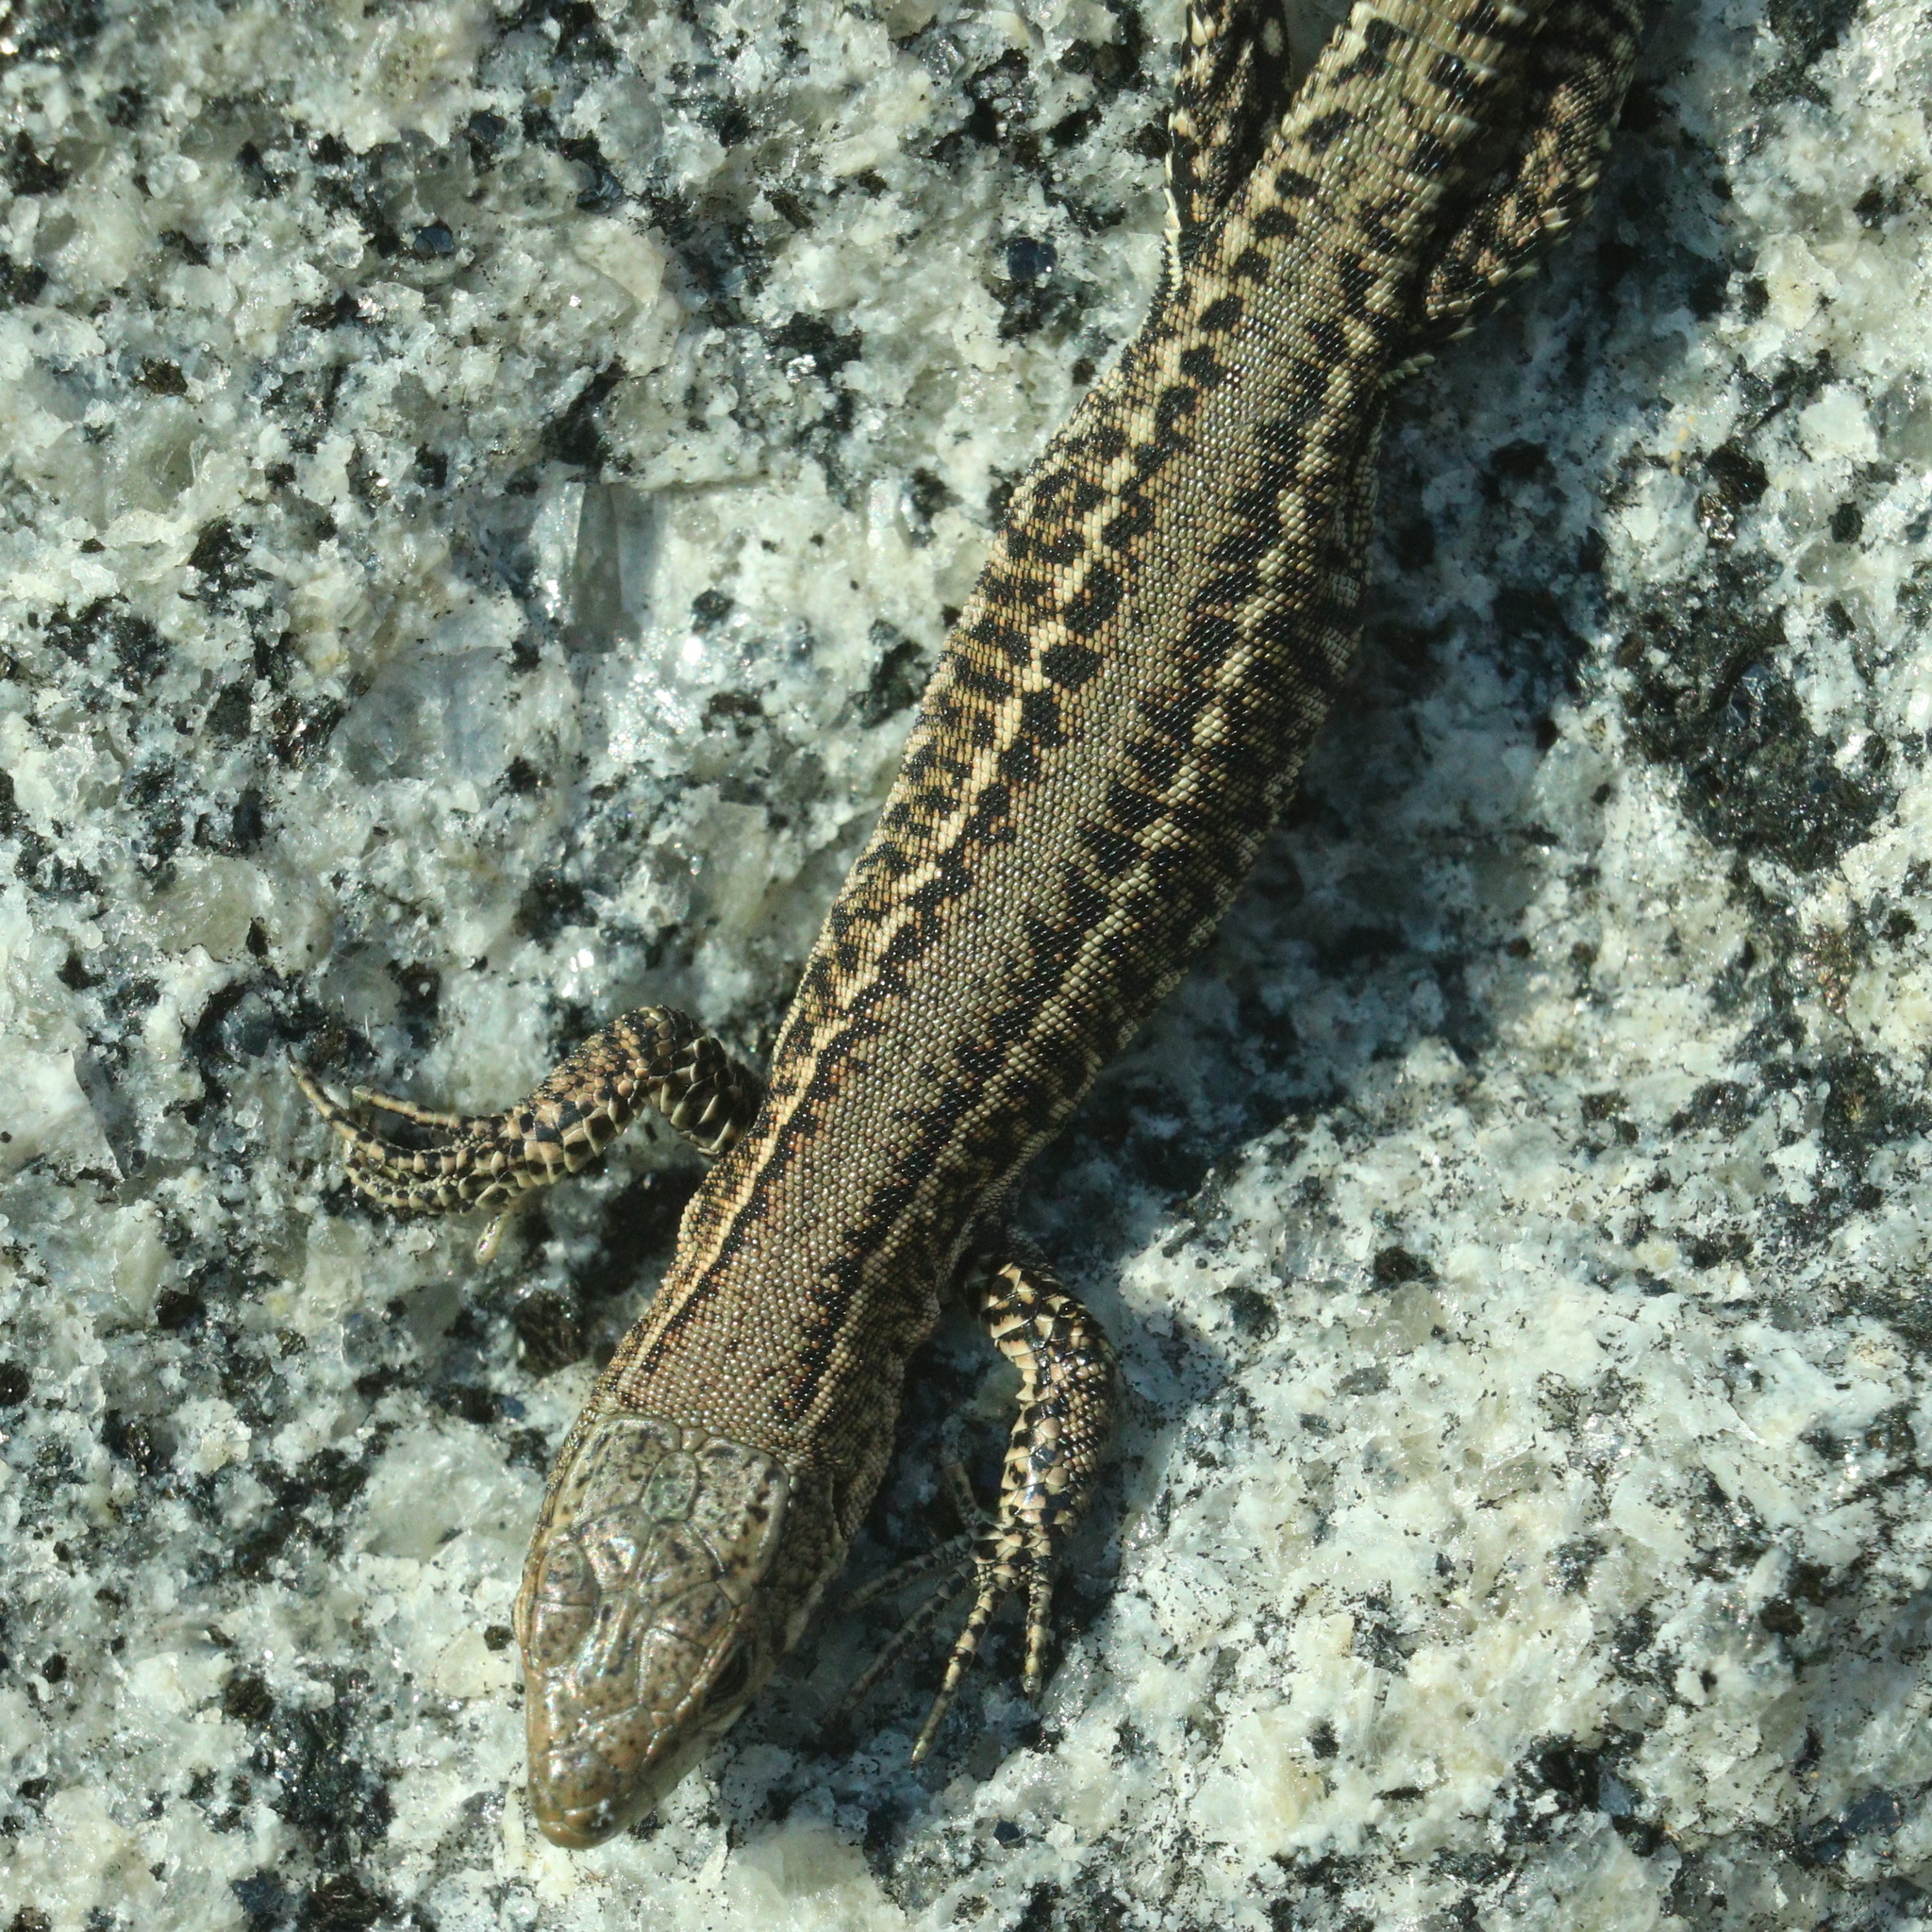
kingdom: Animalia
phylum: Chordata
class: Squamata
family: Lacertidae
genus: Podarcis
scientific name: Podarcis bocagei
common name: Bocage's wall lizard
